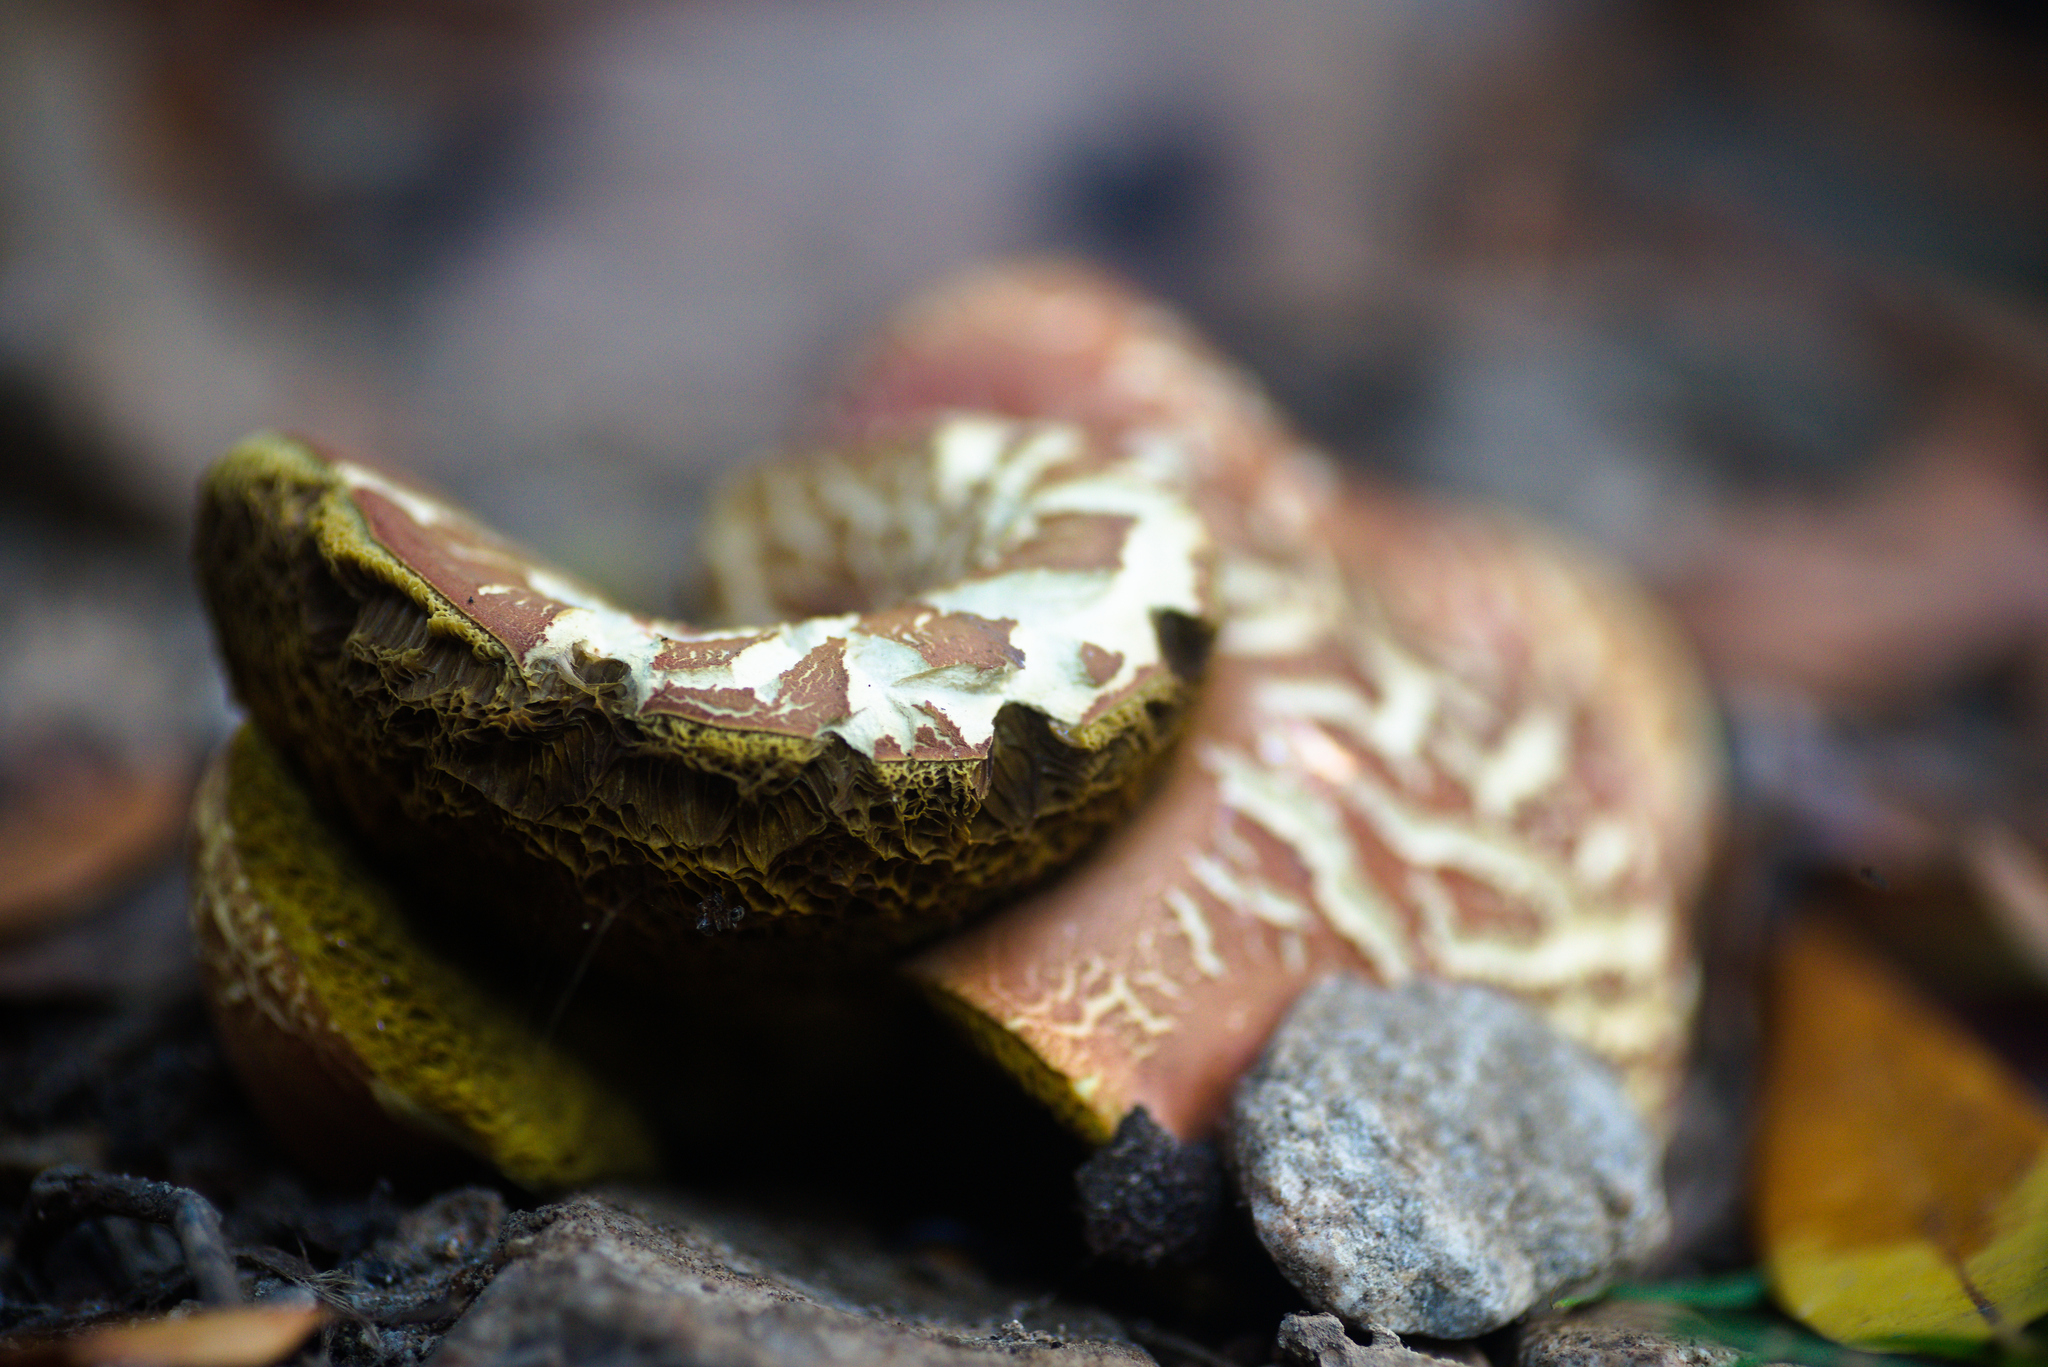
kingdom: Fungi
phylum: Basidiomycota
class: Agaricomycetes
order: Boletales
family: Boletaceae
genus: Xerocomellus
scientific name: Xerocomellus dryophilus
